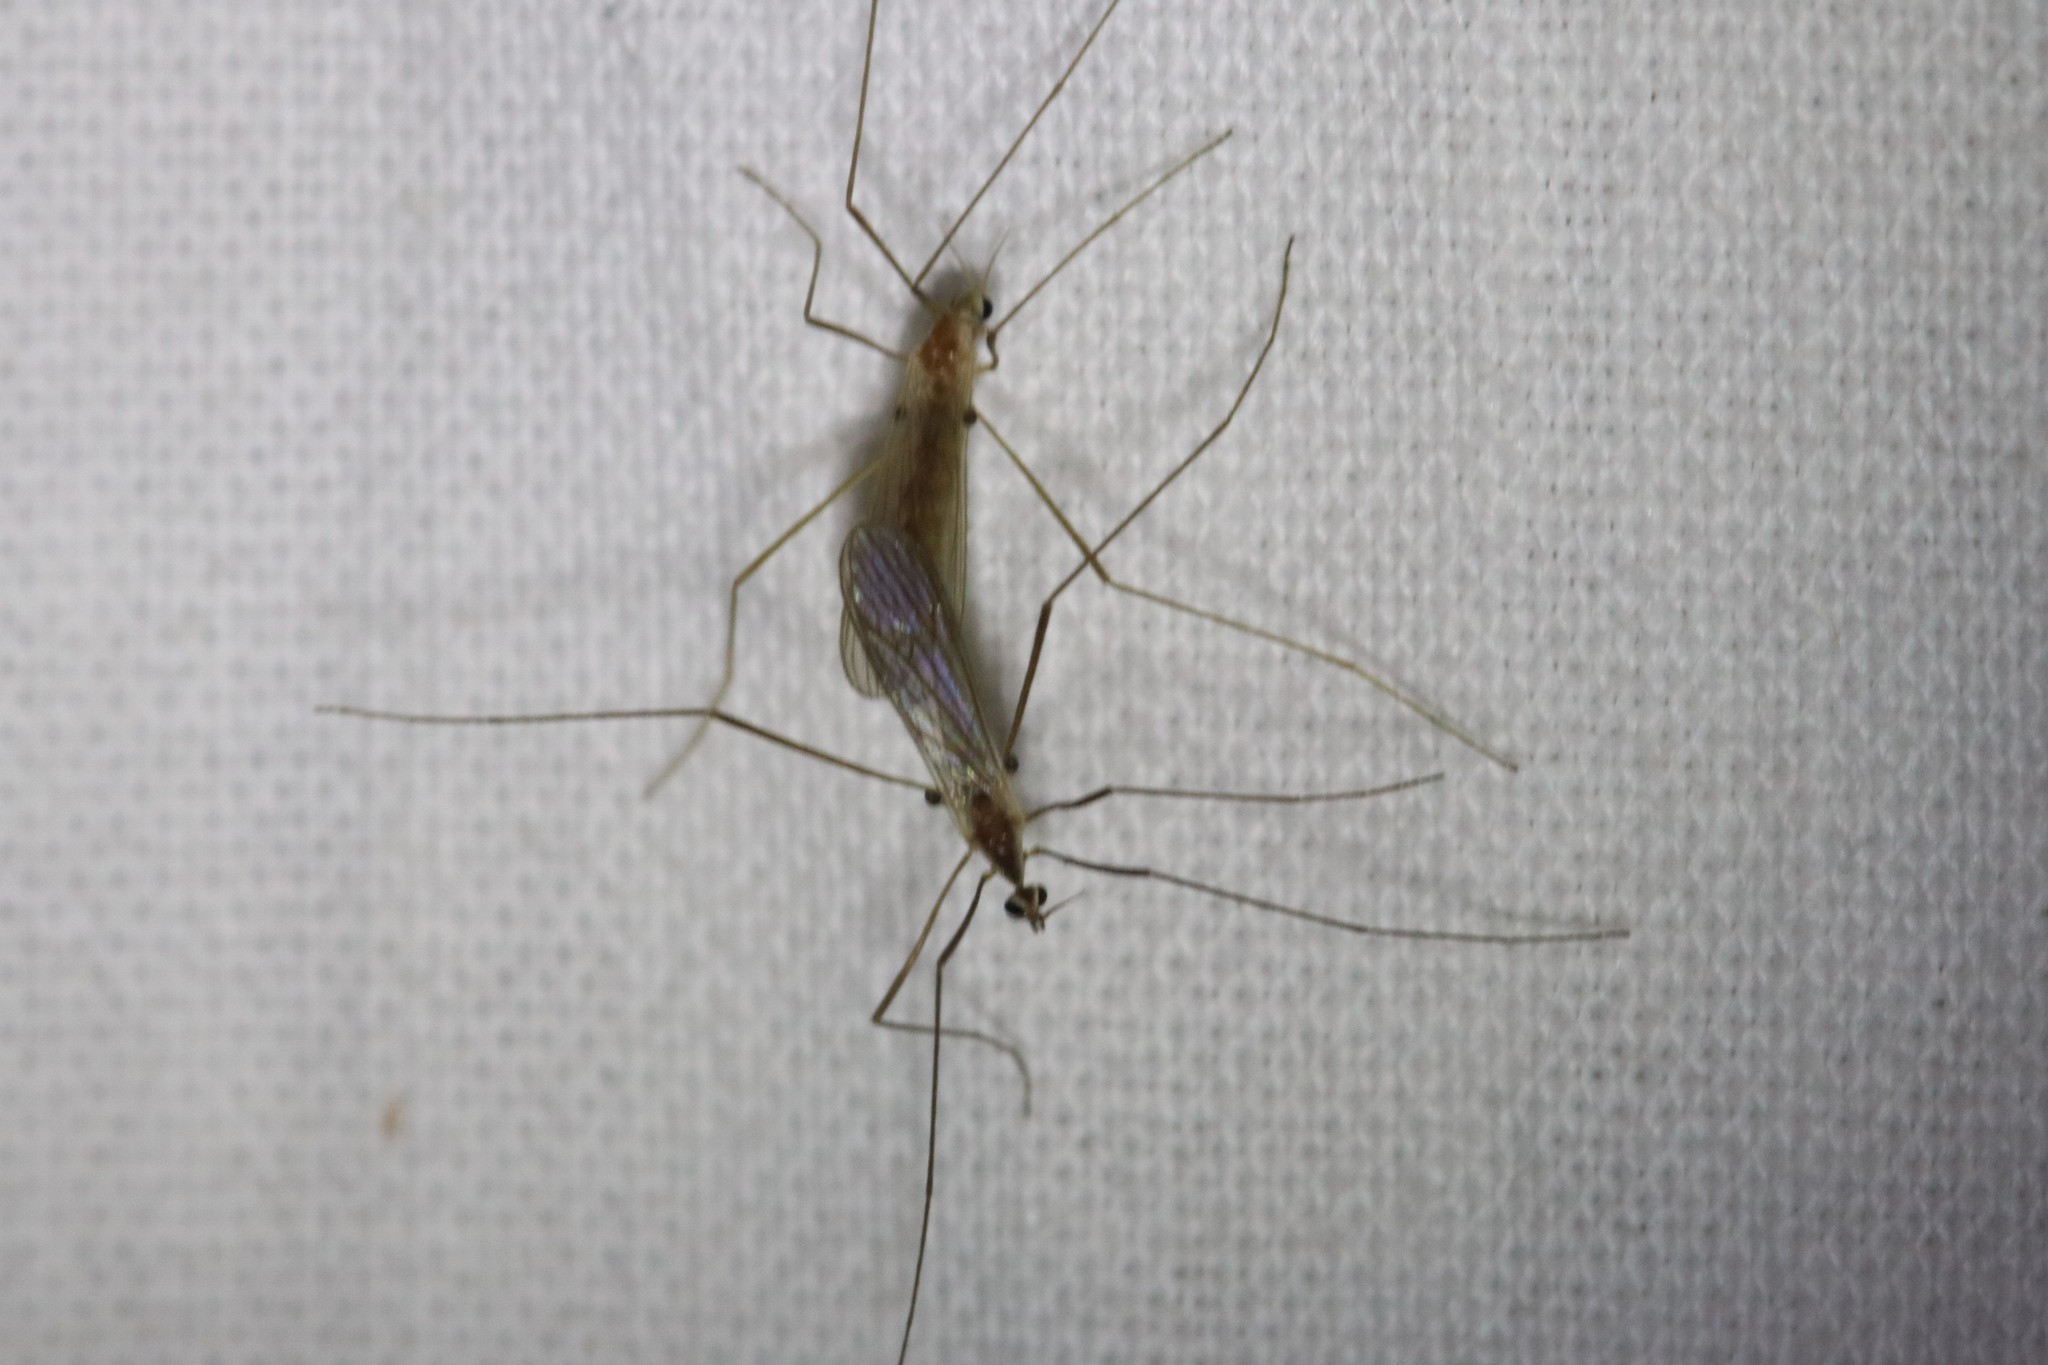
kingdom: Animalia
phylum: Arthropoda
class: Insecta
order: Diptera
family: Limoniidae
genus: Erioptera
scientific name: Erioptera septemtrionis
